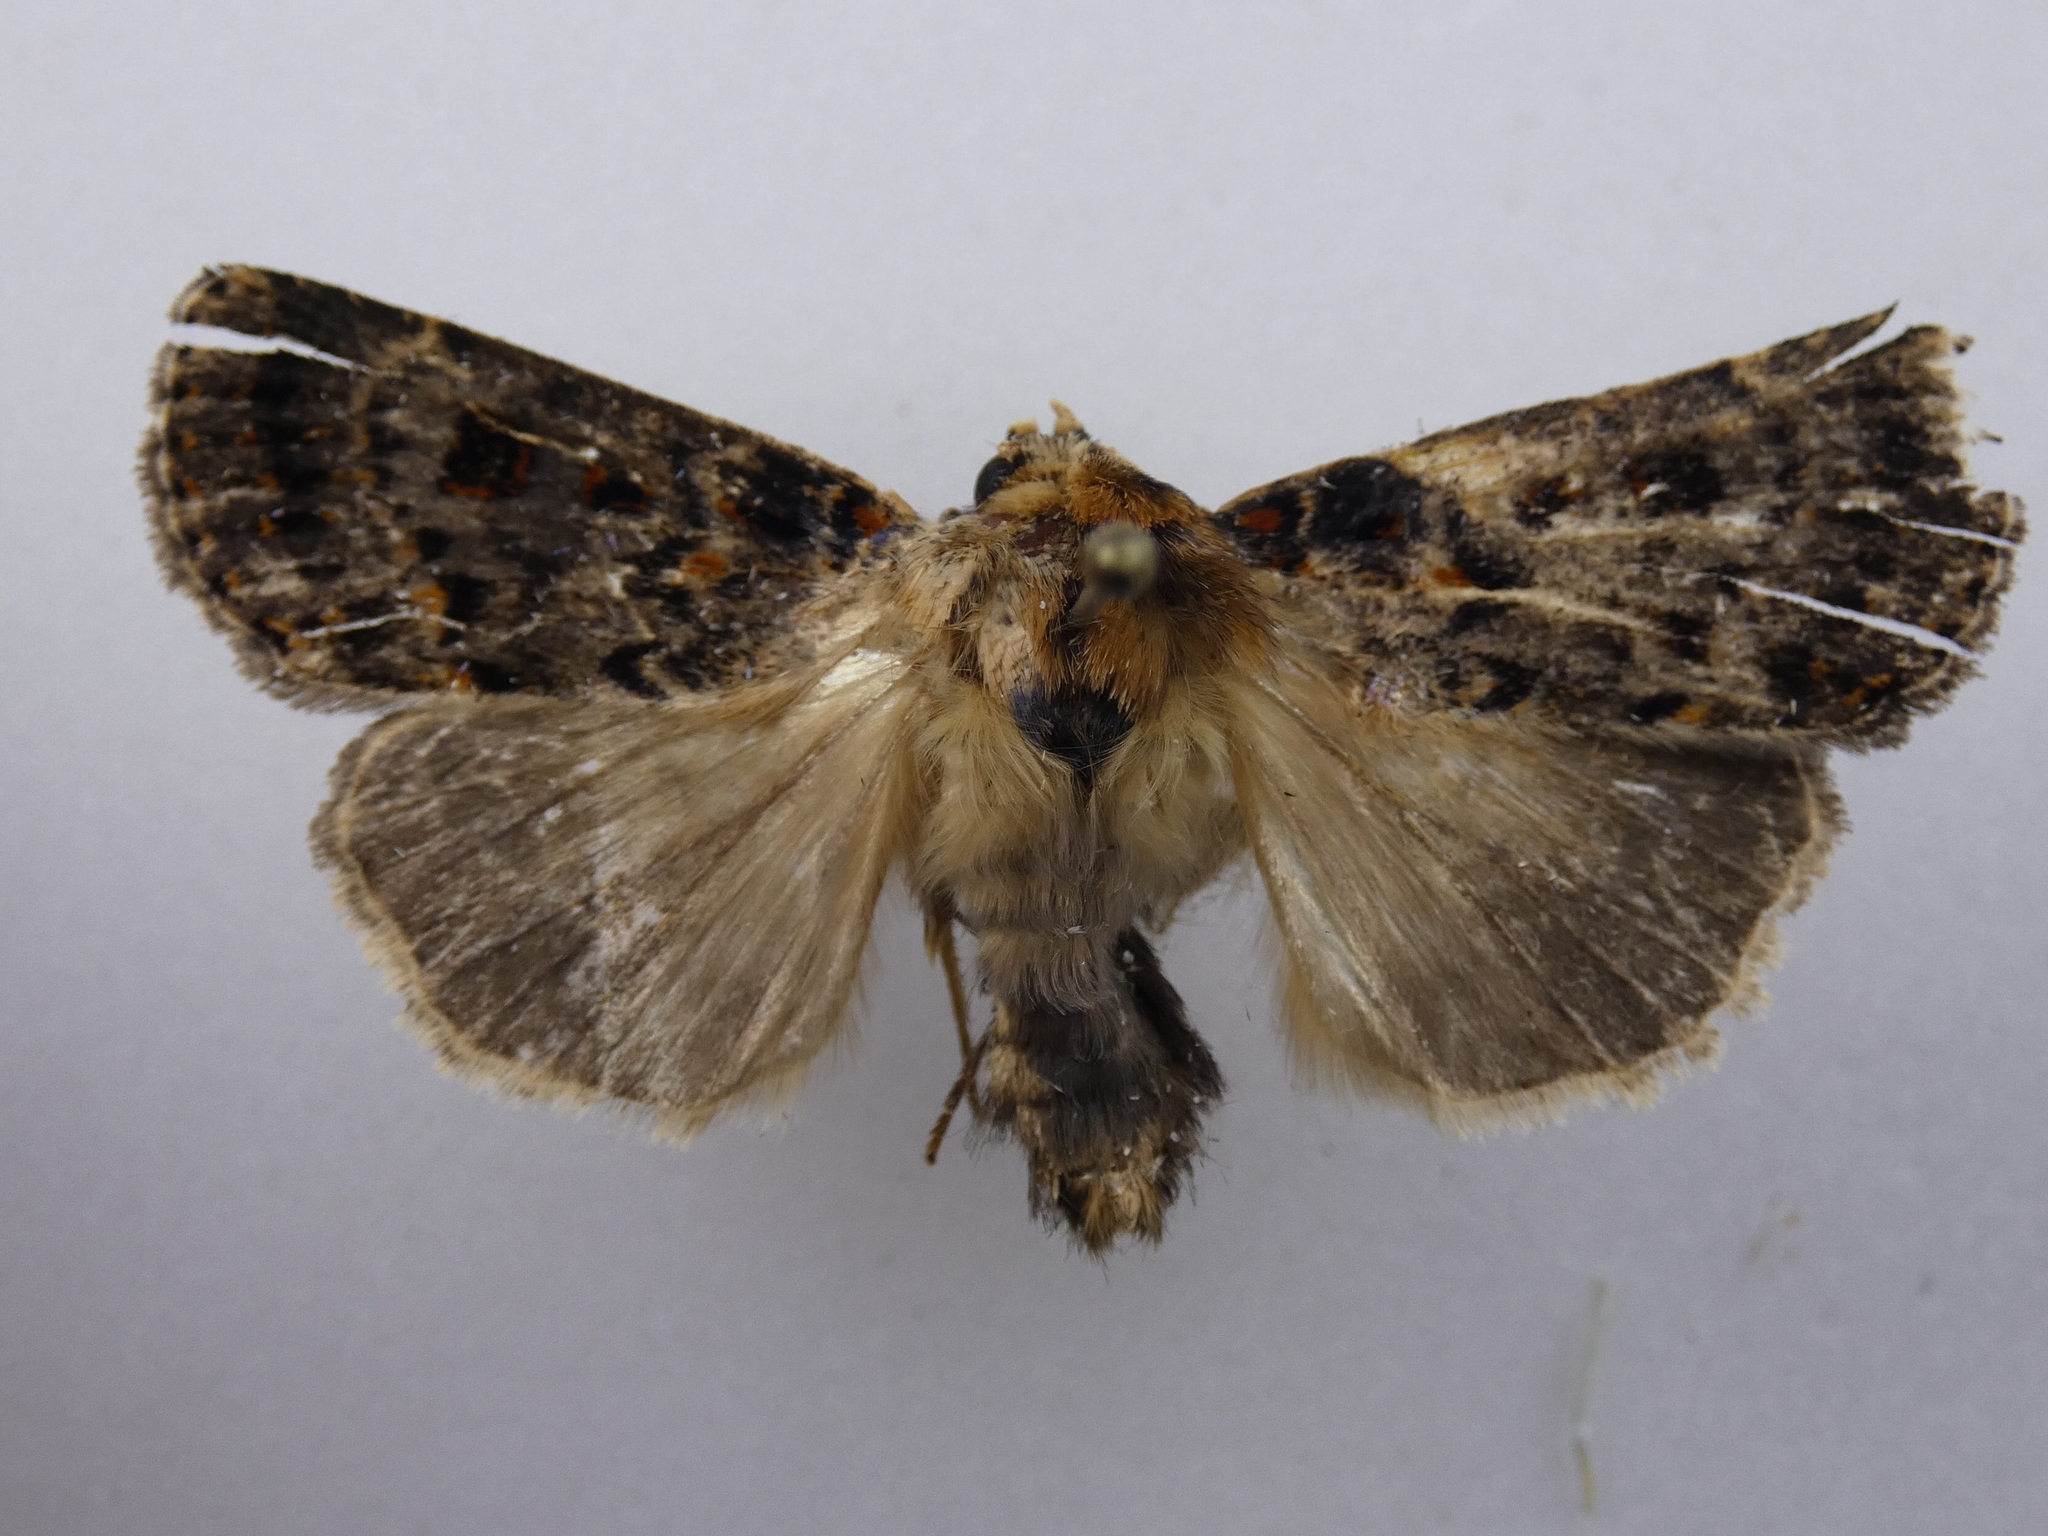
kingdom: Animalia
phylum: Arthropoda
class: Insecta
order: Lepidoptera
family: Noctuidae
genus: Proteuxoa
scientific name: Proteuxoa sanguinipuncta
